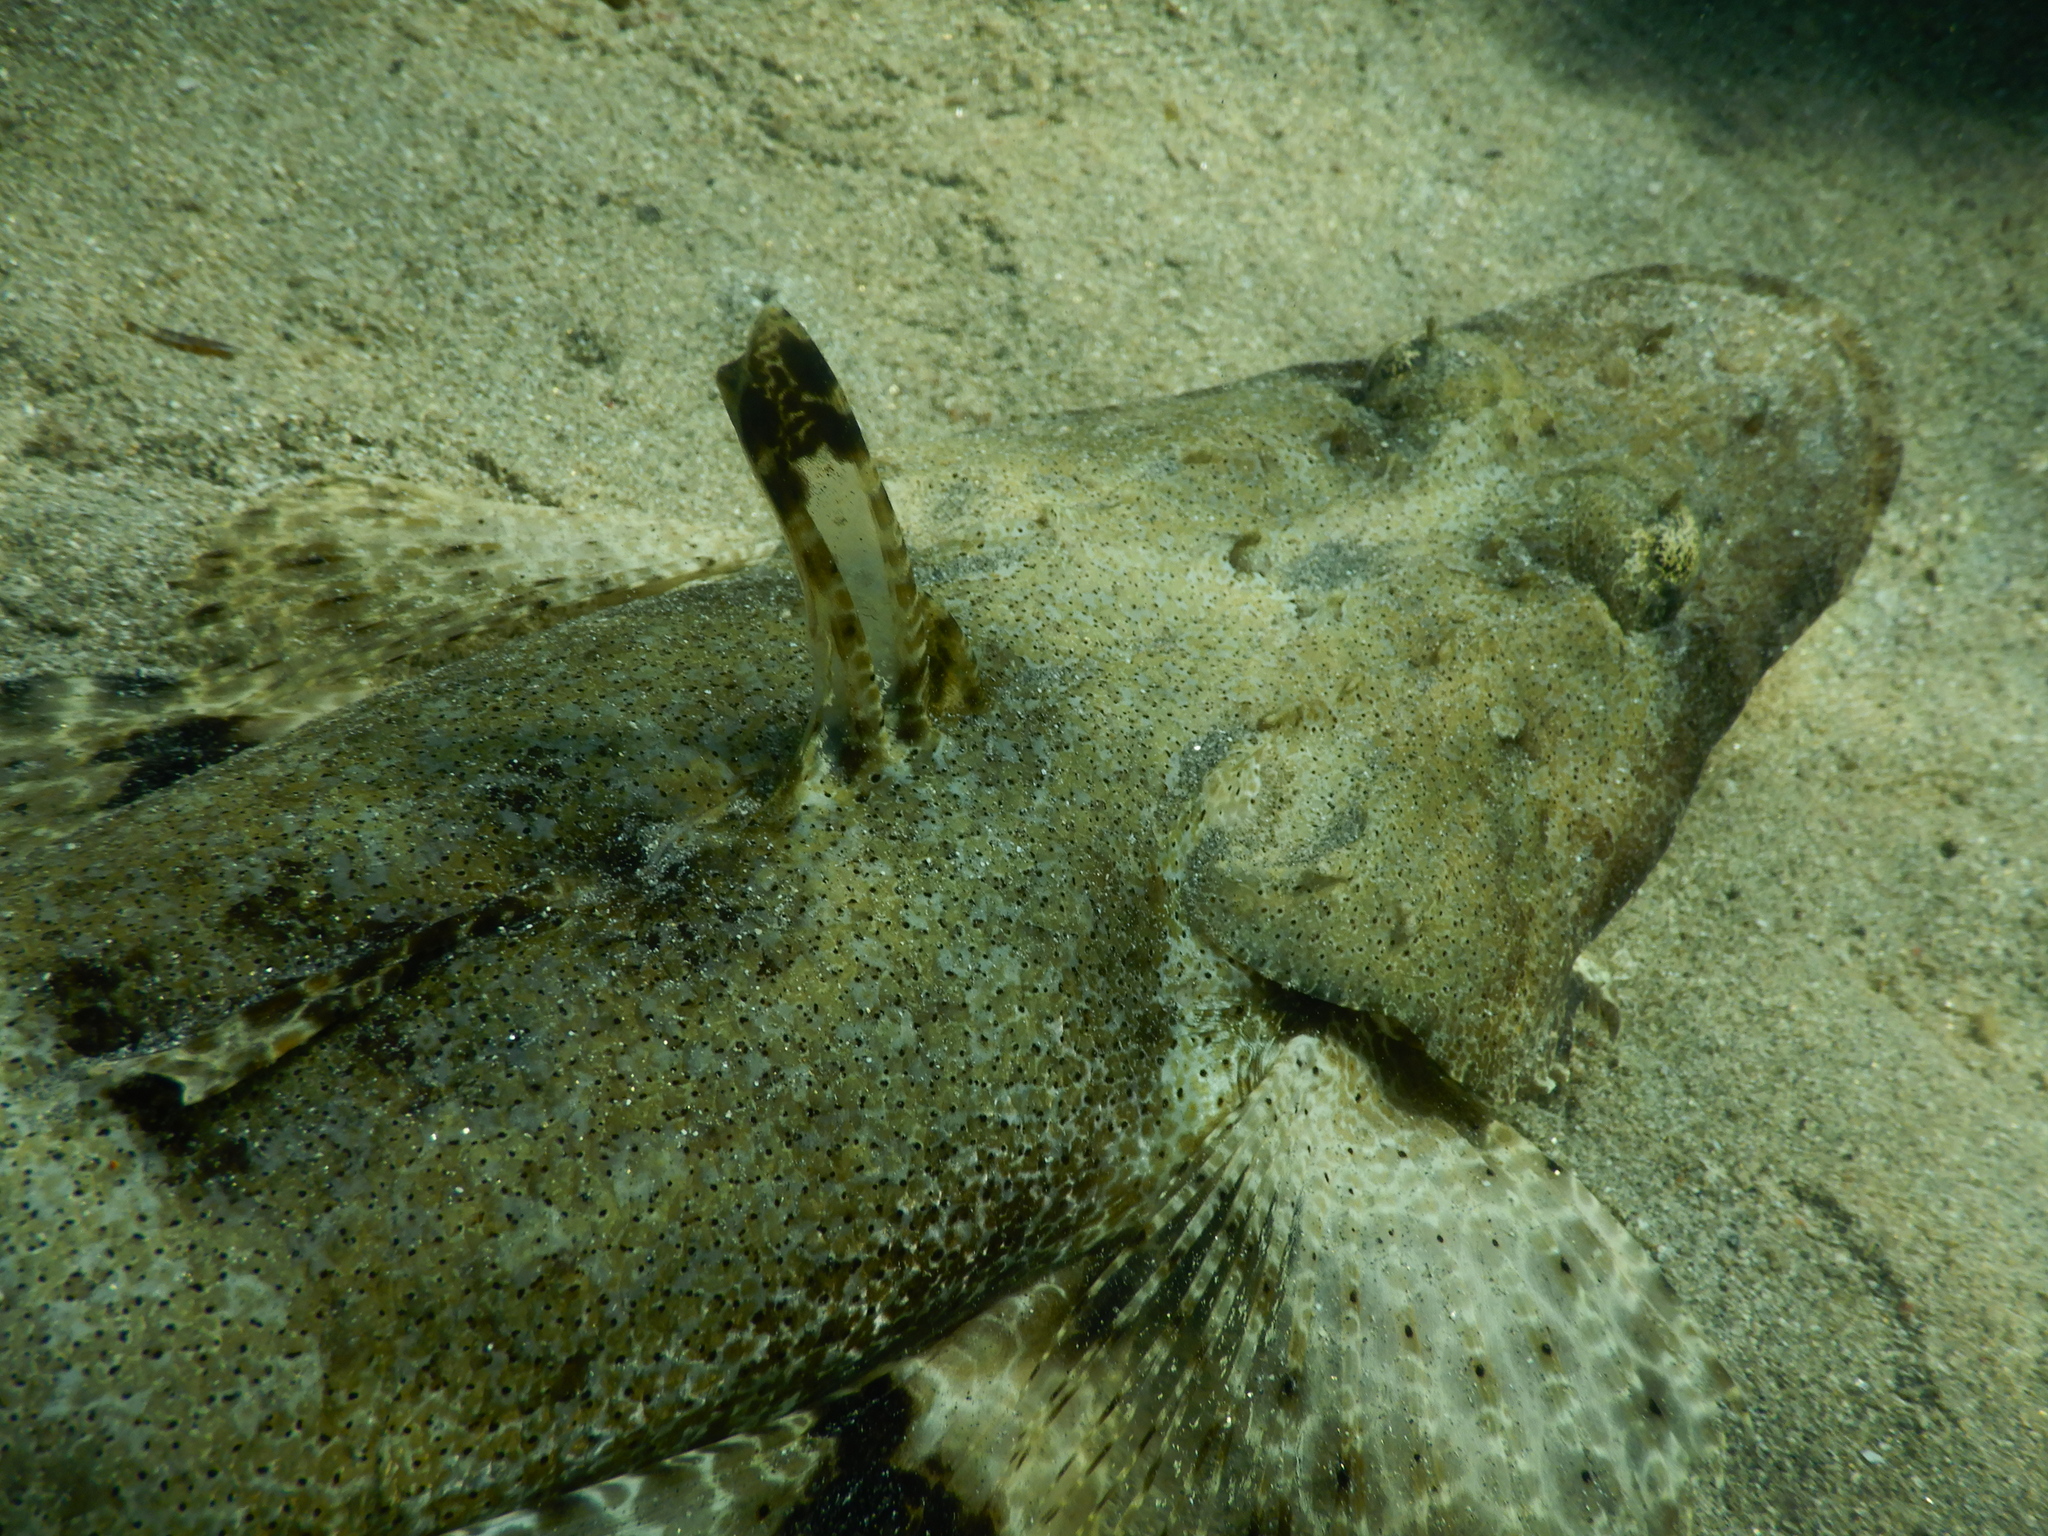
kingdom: Animalia
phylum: Chordata
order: Scorpaeniformes
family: Platycephalidae
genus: Papilloculiceps
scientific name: Papilloculiceps longiceps
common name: Tentacled flathead
